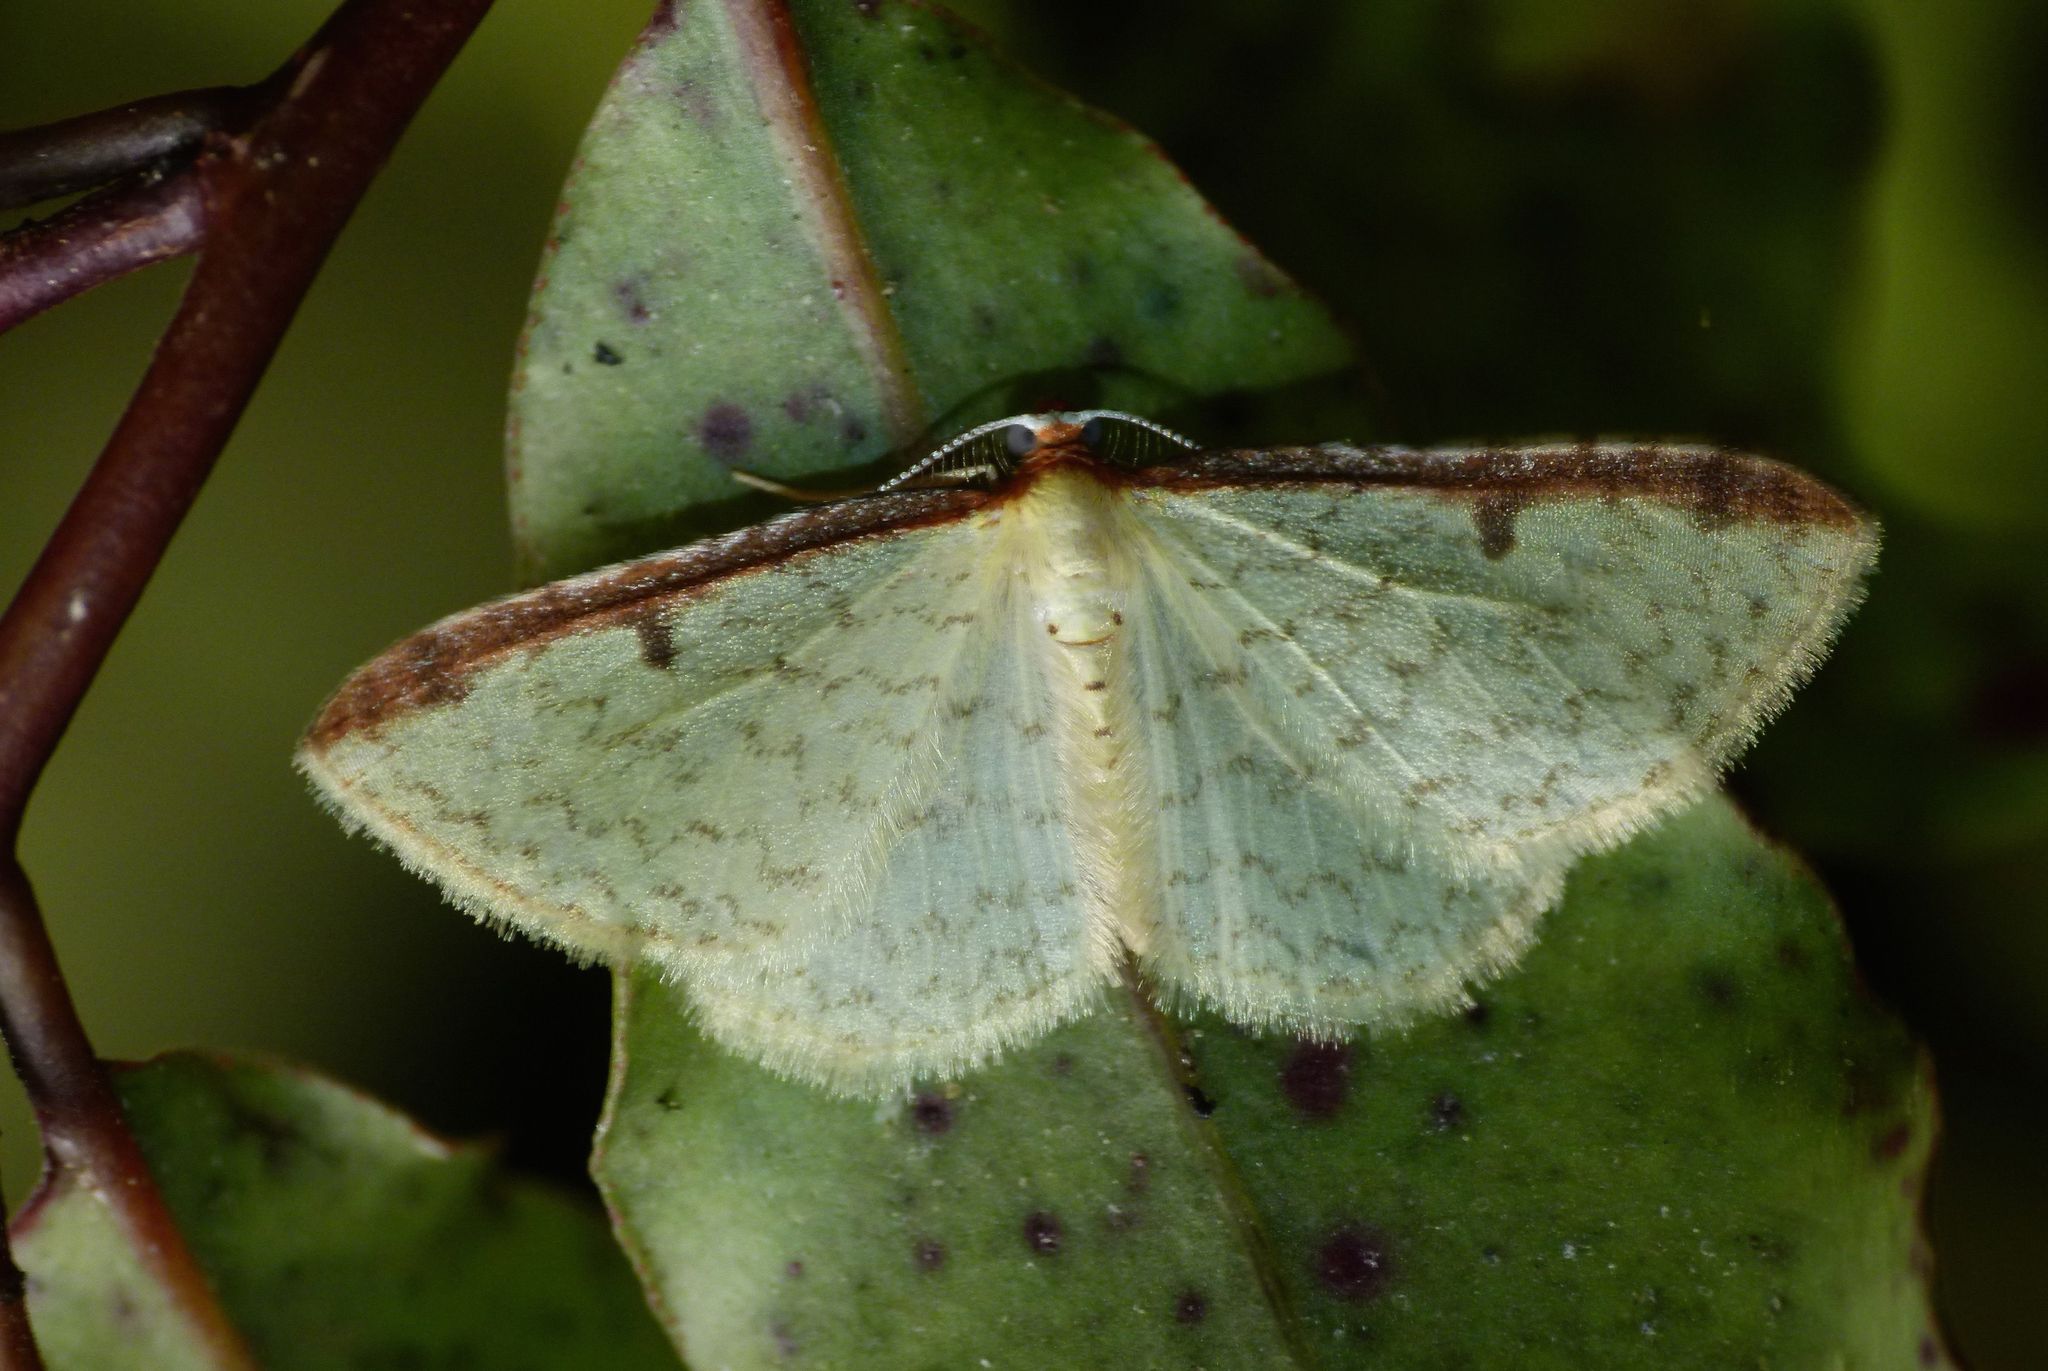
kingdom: Animalia
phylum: Arthropoda
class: Insecta
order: Lepidoptera
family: Geometridae
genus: Epiphryne
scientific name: Epiphryne undosata
